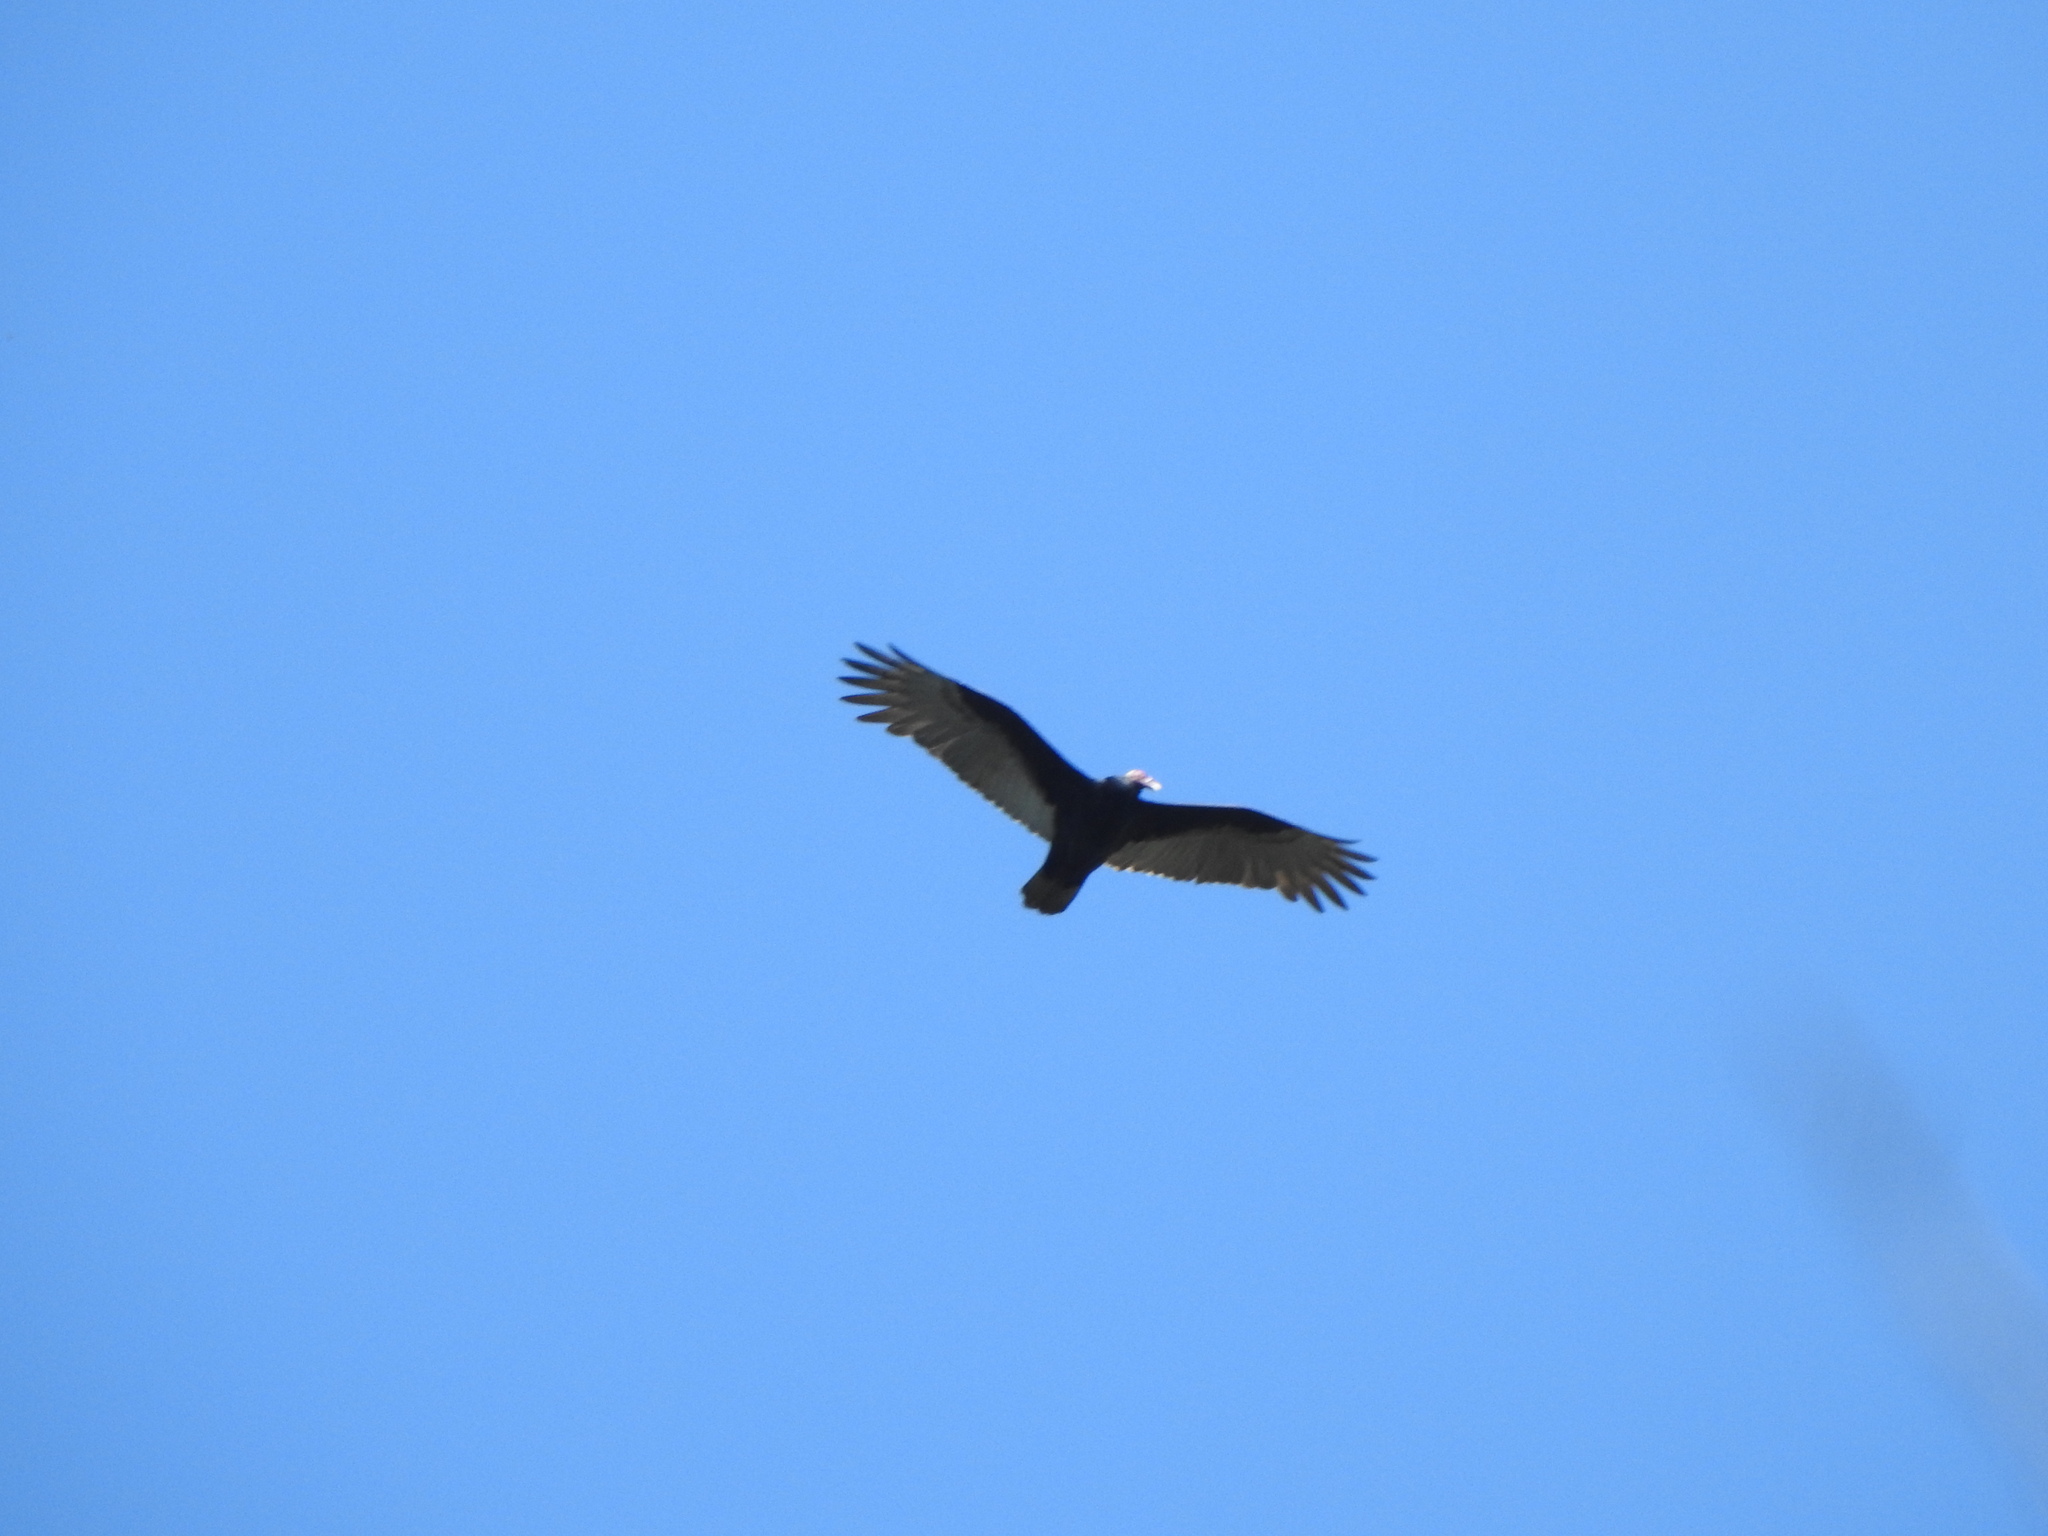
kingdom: Animalia
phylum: Chordata
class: Aves
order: Accipitriformes
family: Cathartidae
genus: Cathartes
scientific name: Cathartes aura
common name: Turkey vulture
